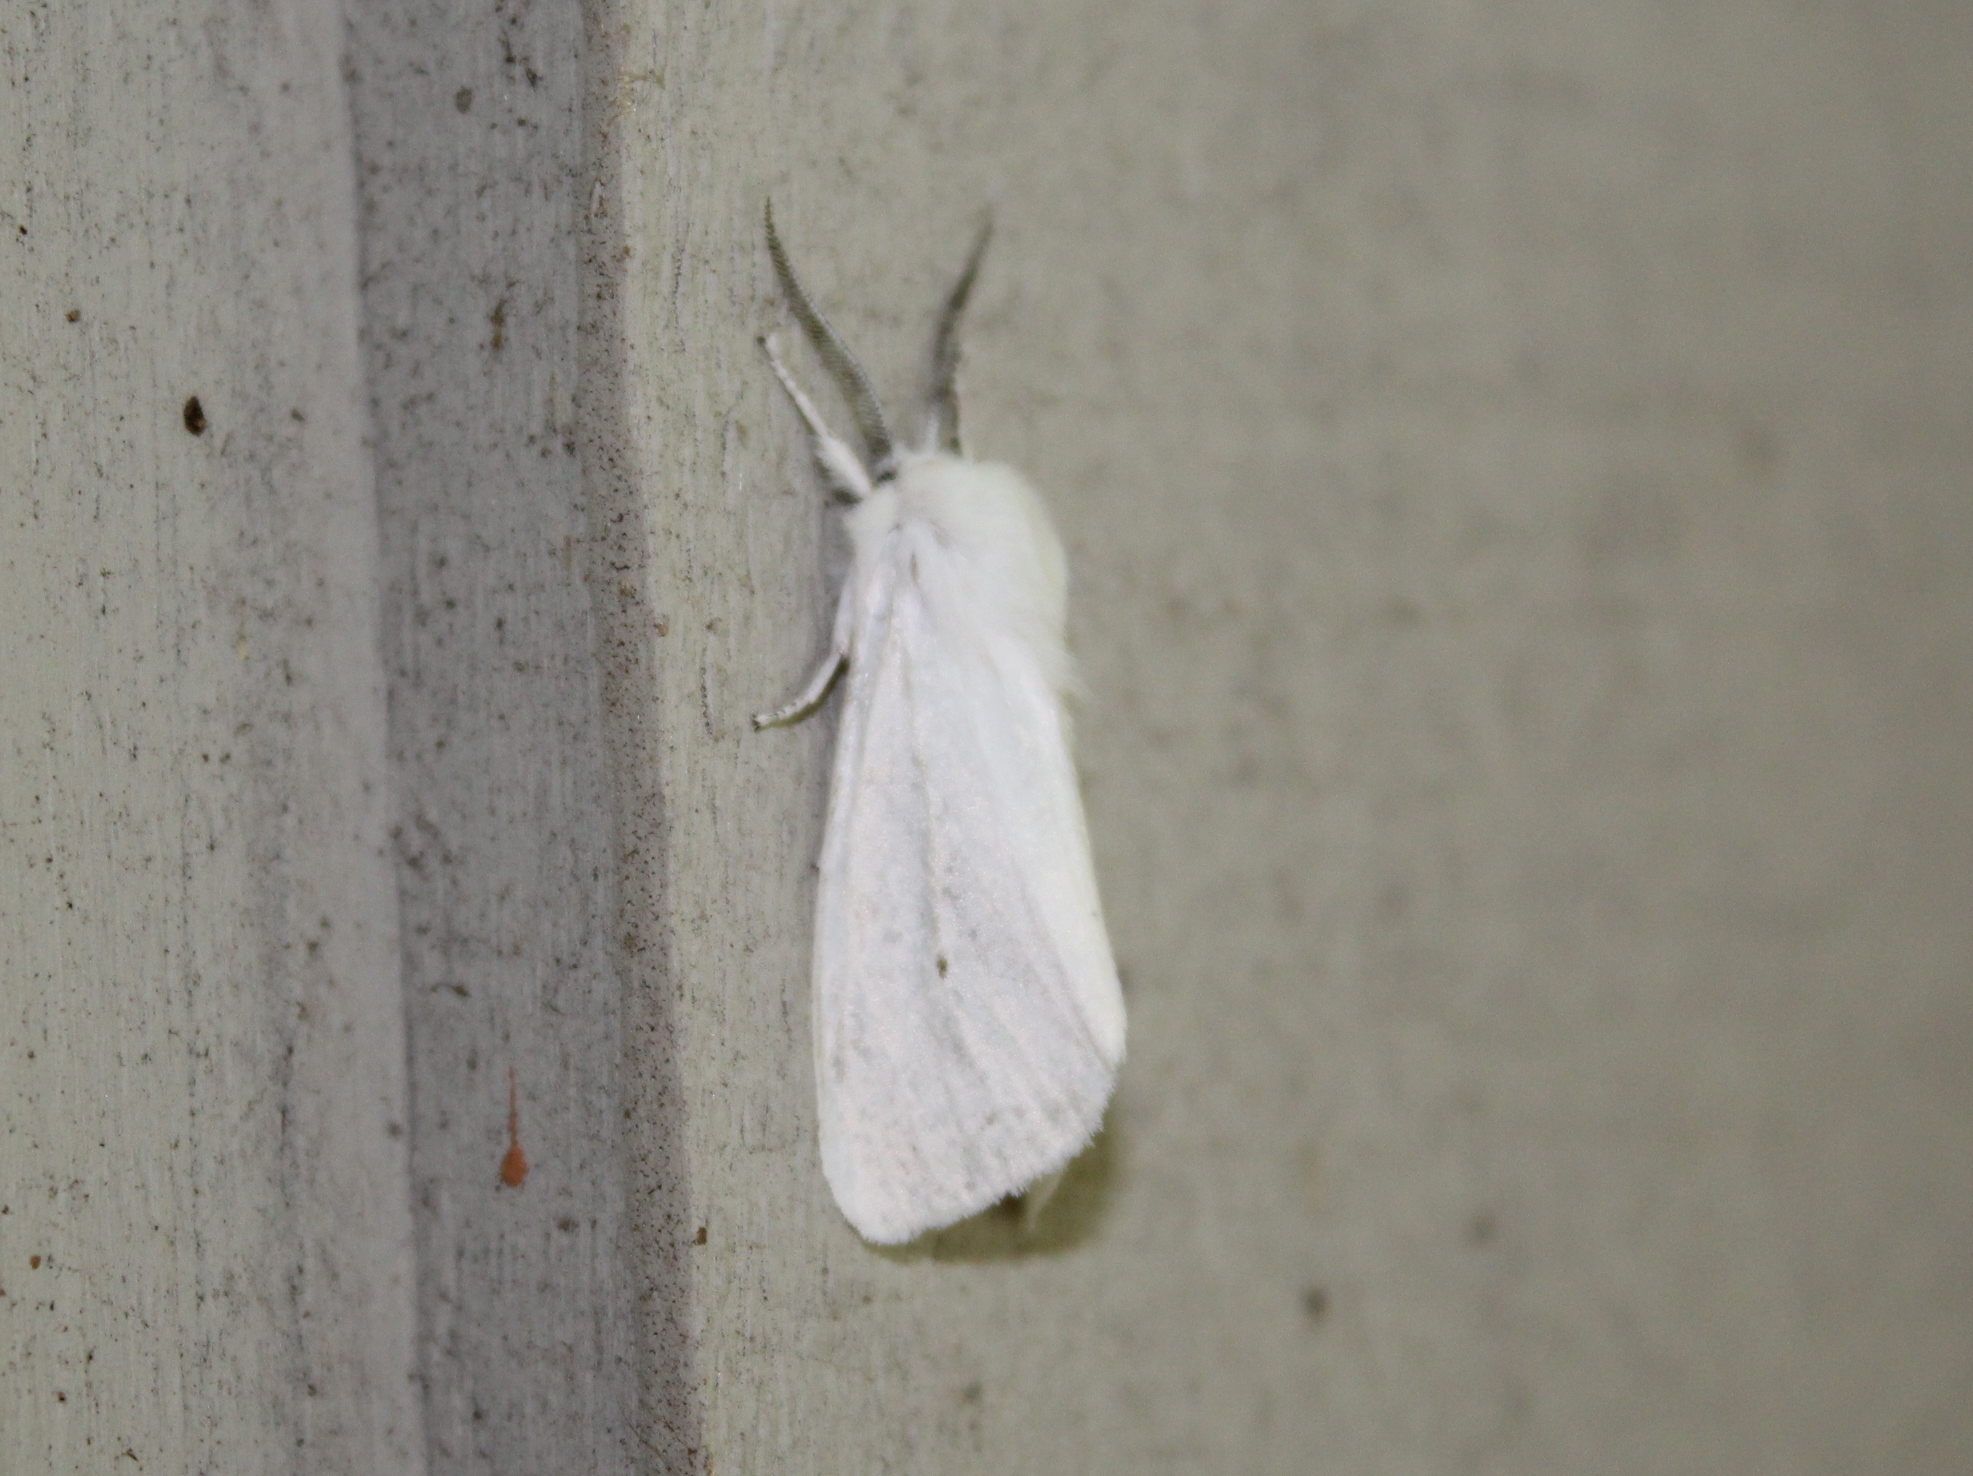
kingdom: Animalia
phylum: Arthropoda
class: Insecta
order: Lepidoptera
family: Erebidae
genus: Spilosoma
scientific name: Spilosoma virginica
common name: Virginia tiger moth
